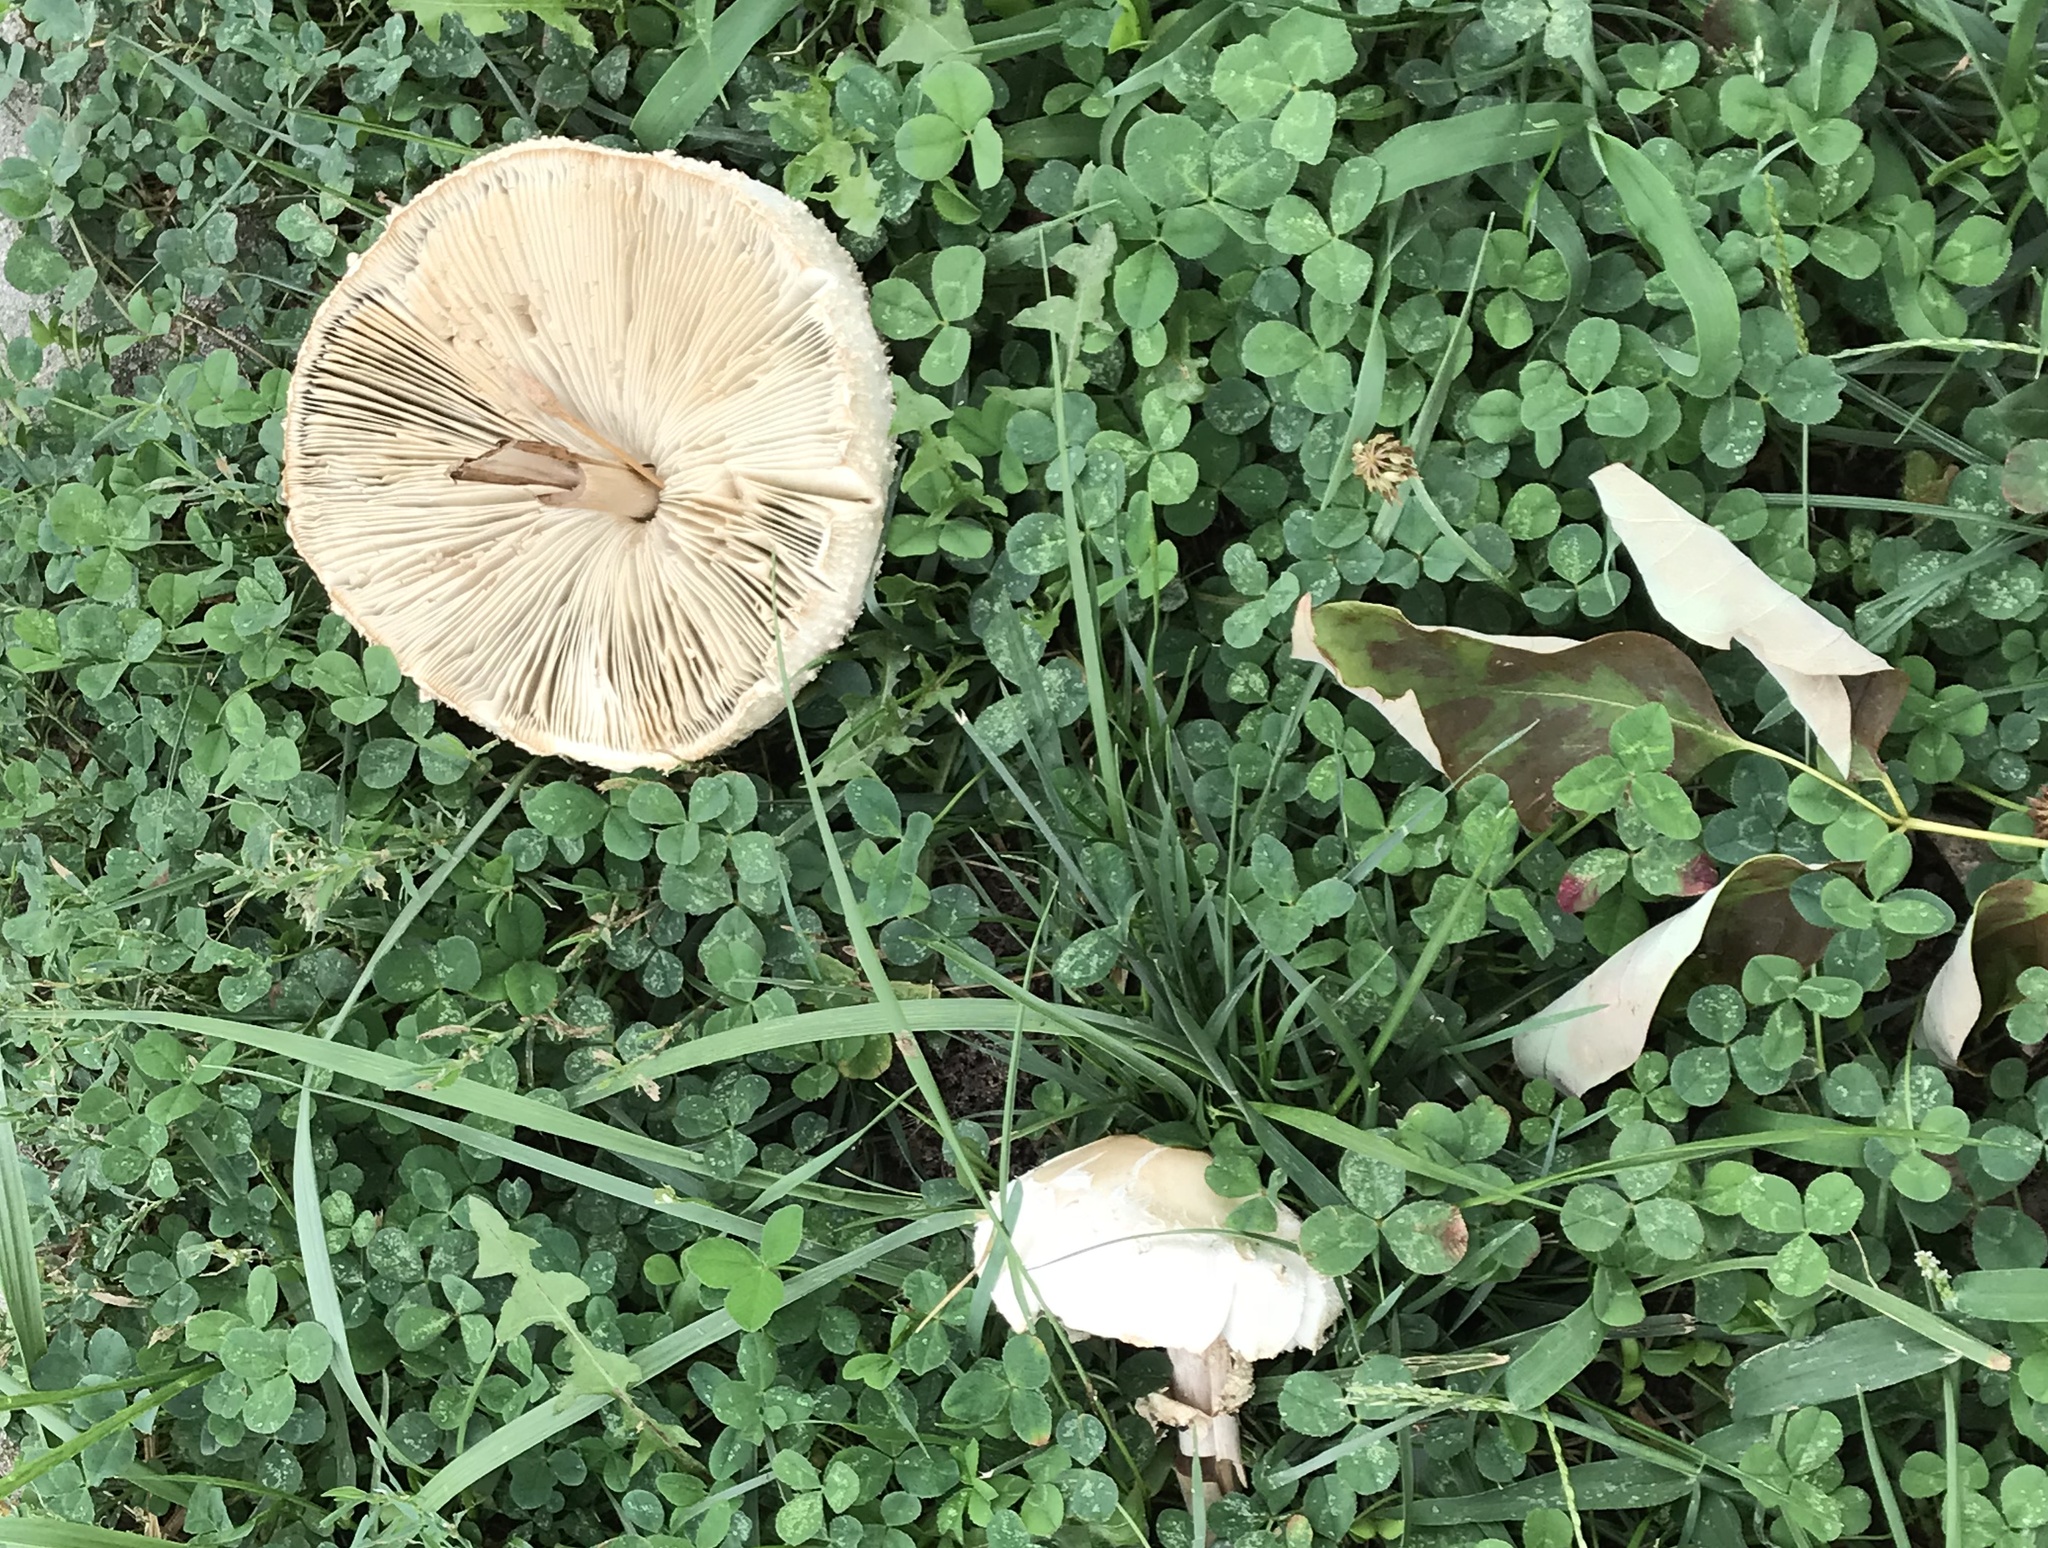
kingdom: Fungi
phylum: Basidiomycota
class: Agaricomycetes
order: Agaricales
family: Agaricaceae
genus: Chlorophyllum
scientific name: Chlorophyllum molybdites
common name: False parasol
